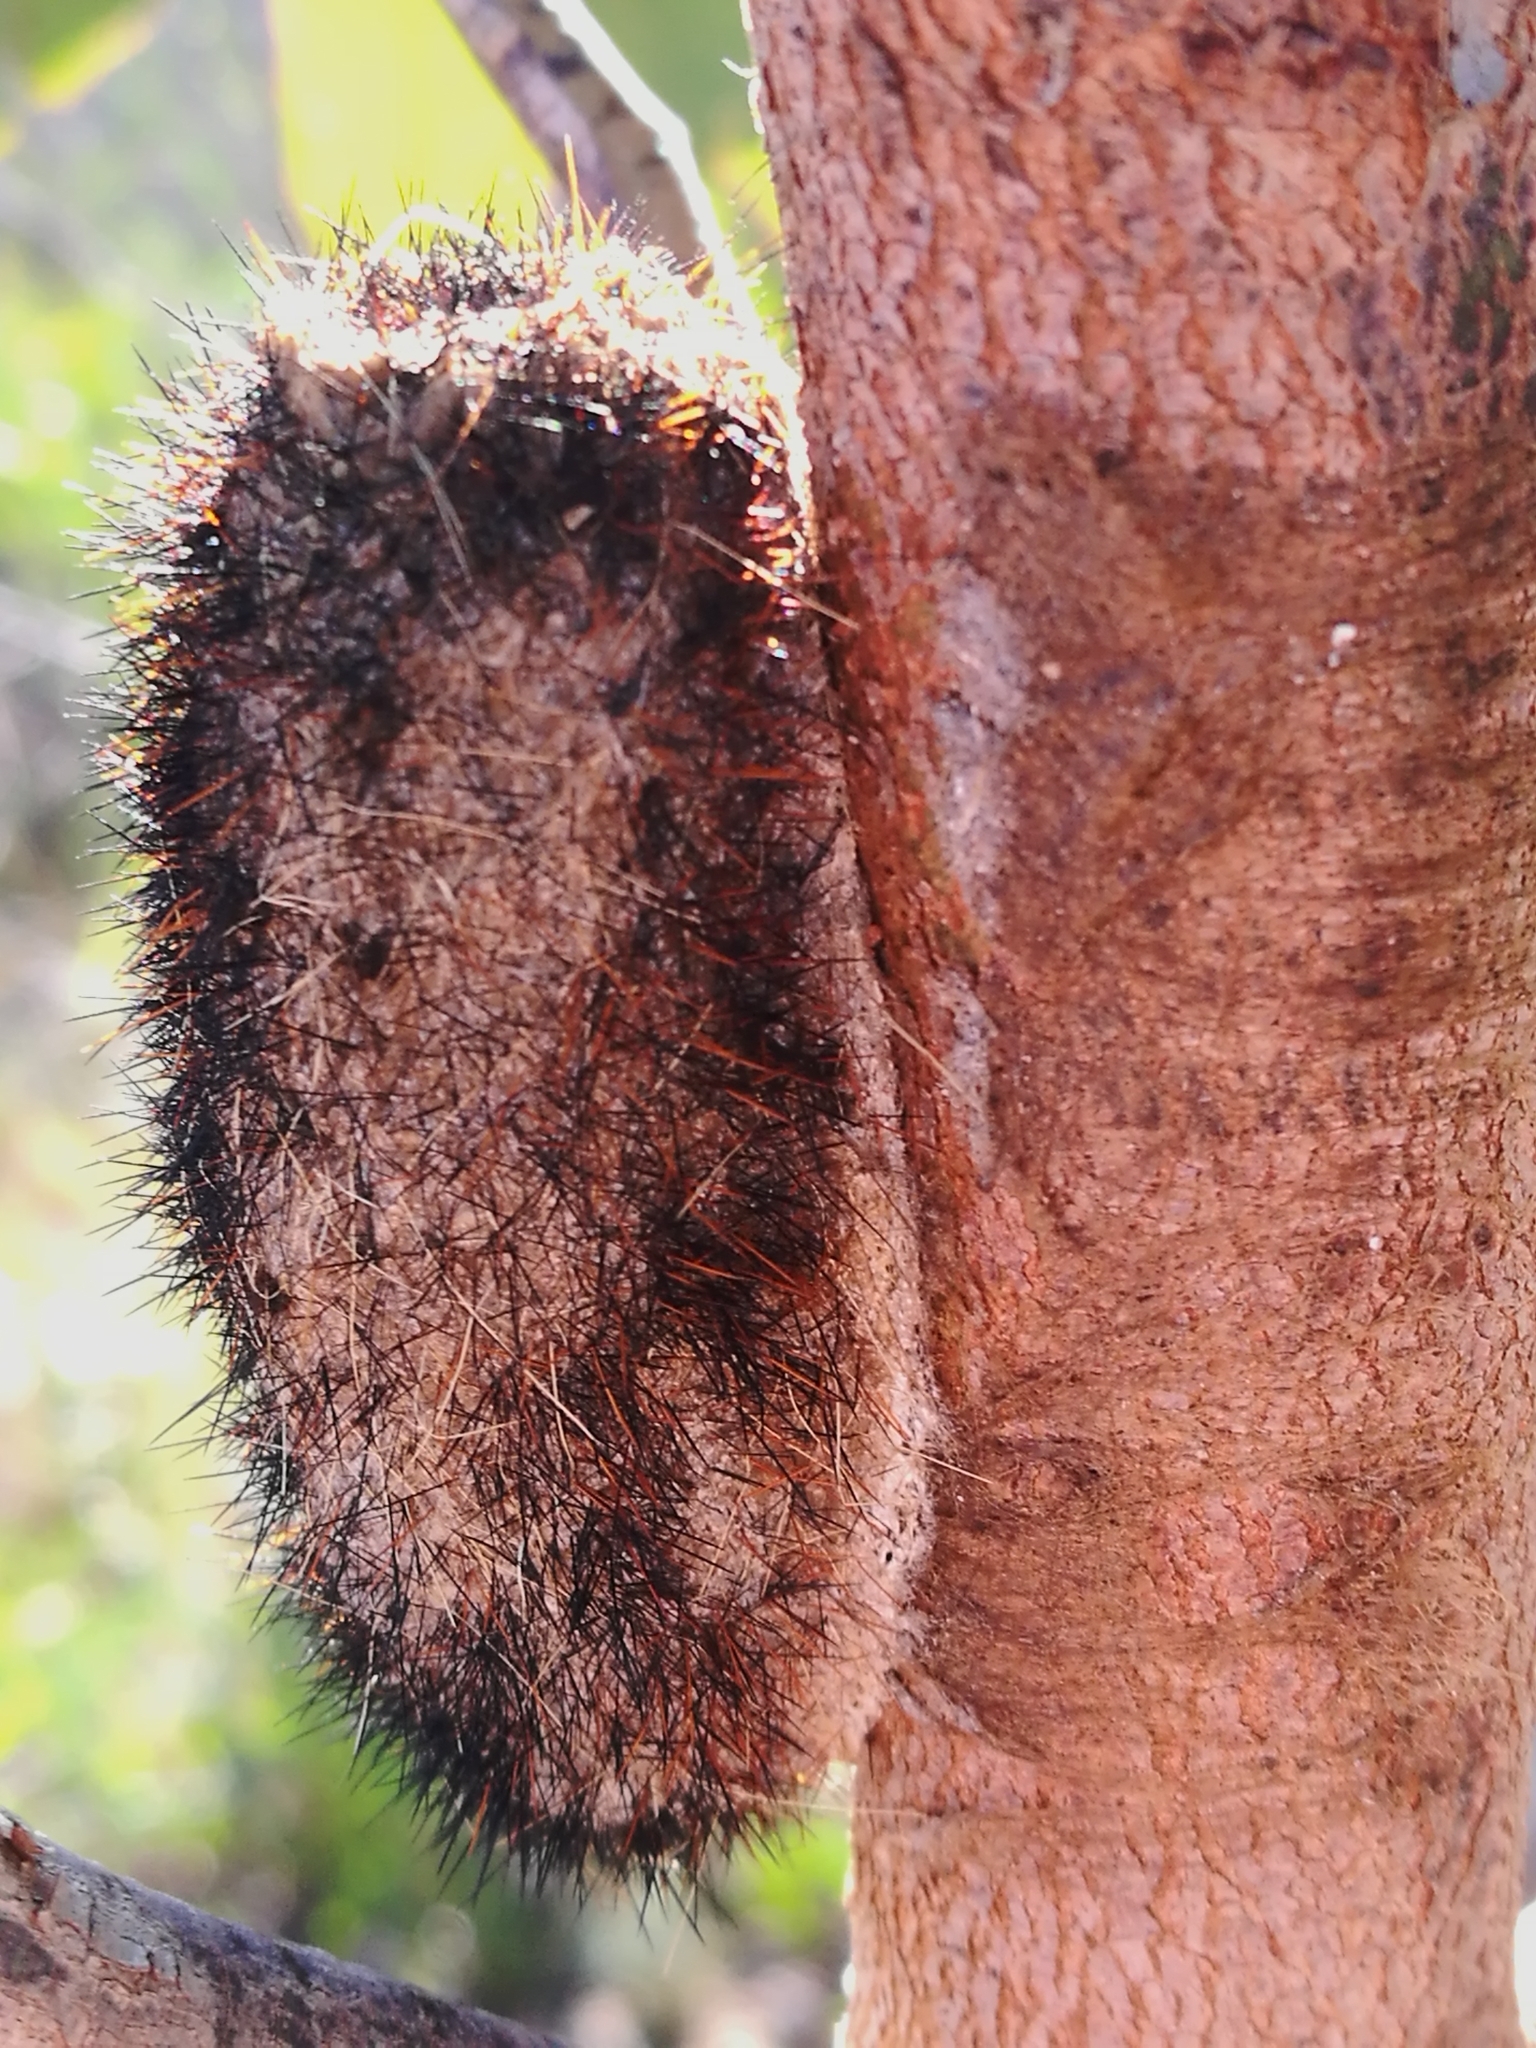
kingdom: Animalia
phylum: Arthropoda
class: Insecta
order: Lepidoptera
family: Lasiocampidae
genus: Gonometa
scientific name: Gonometa postica
